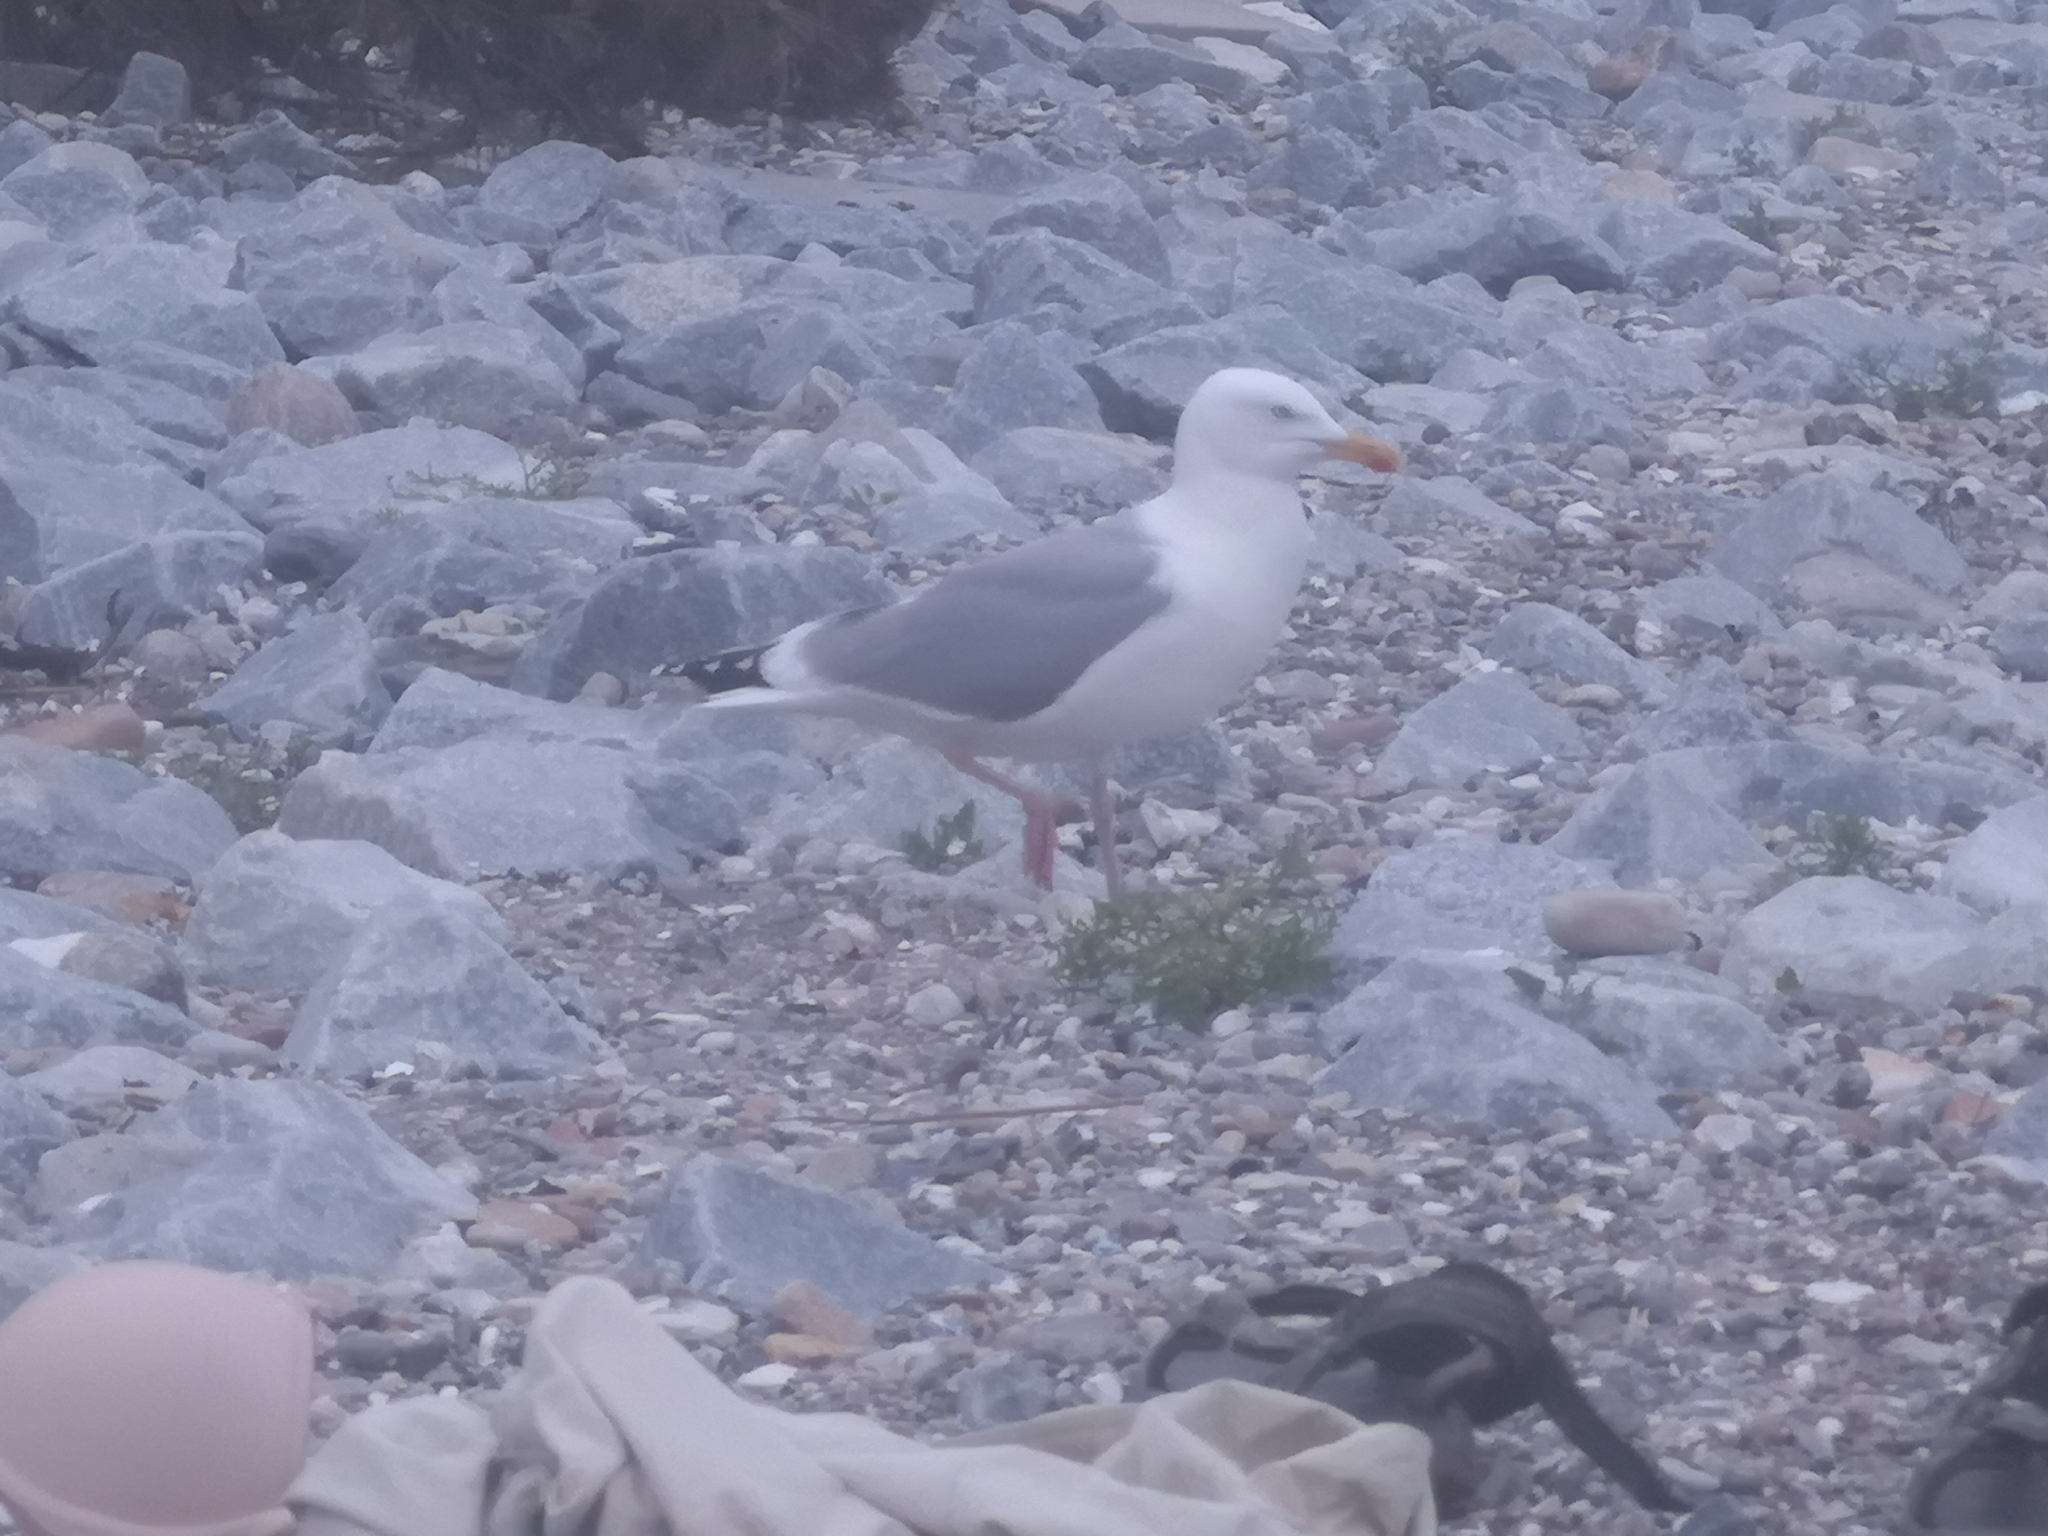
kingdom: Animalia
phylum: Chordata
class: Aves
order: Charadriiformes
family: Laridae
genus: Larus
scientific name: Larus argentatus
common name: Herring gull
